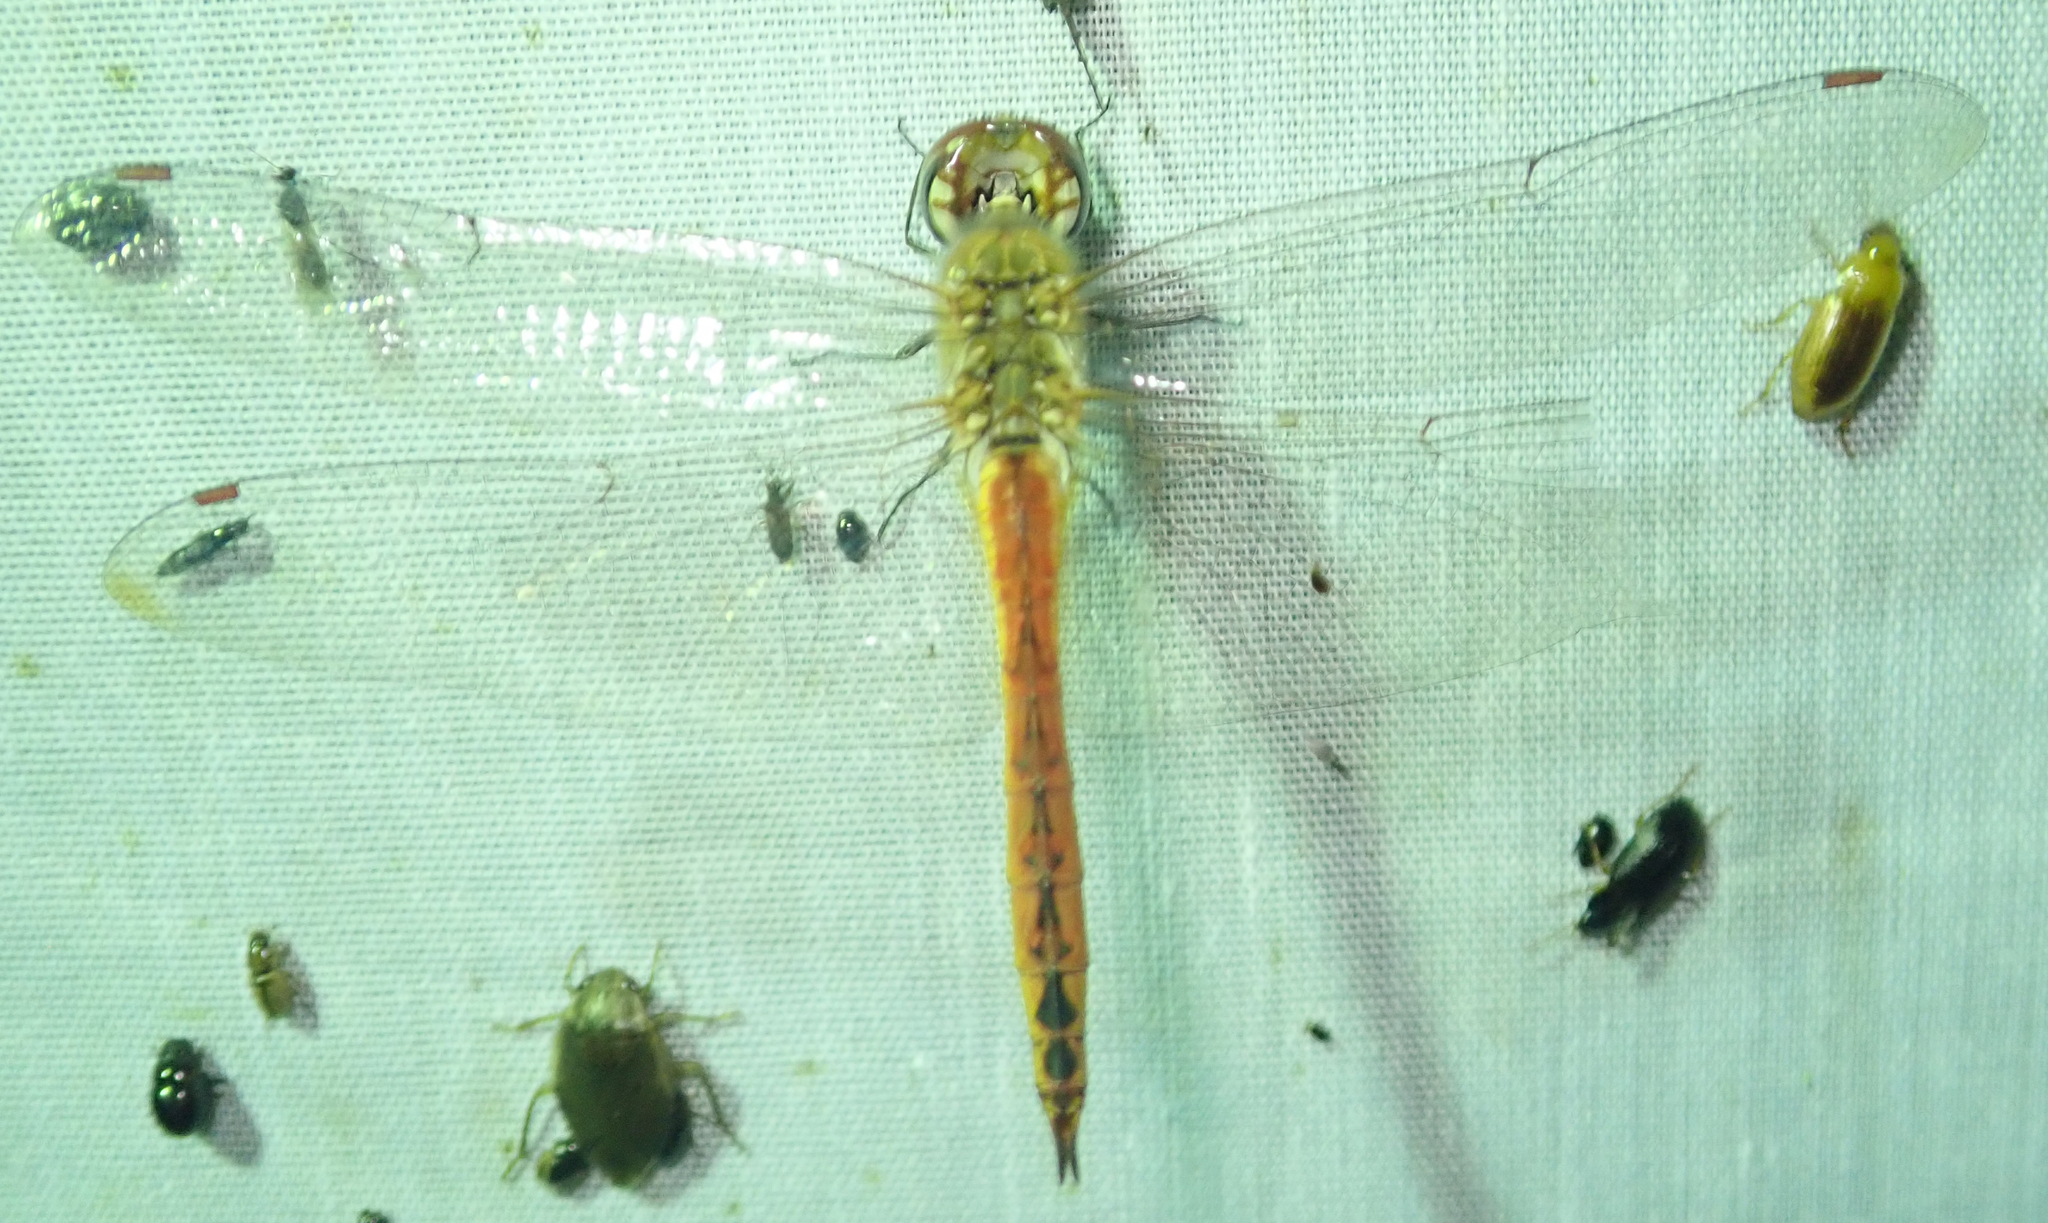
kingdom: Animalia
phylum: Arthropoda
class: Insecta
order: Odonata
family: Libellulidae
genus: Pantala
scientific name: Pantala flavescens
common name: Wandering glider
